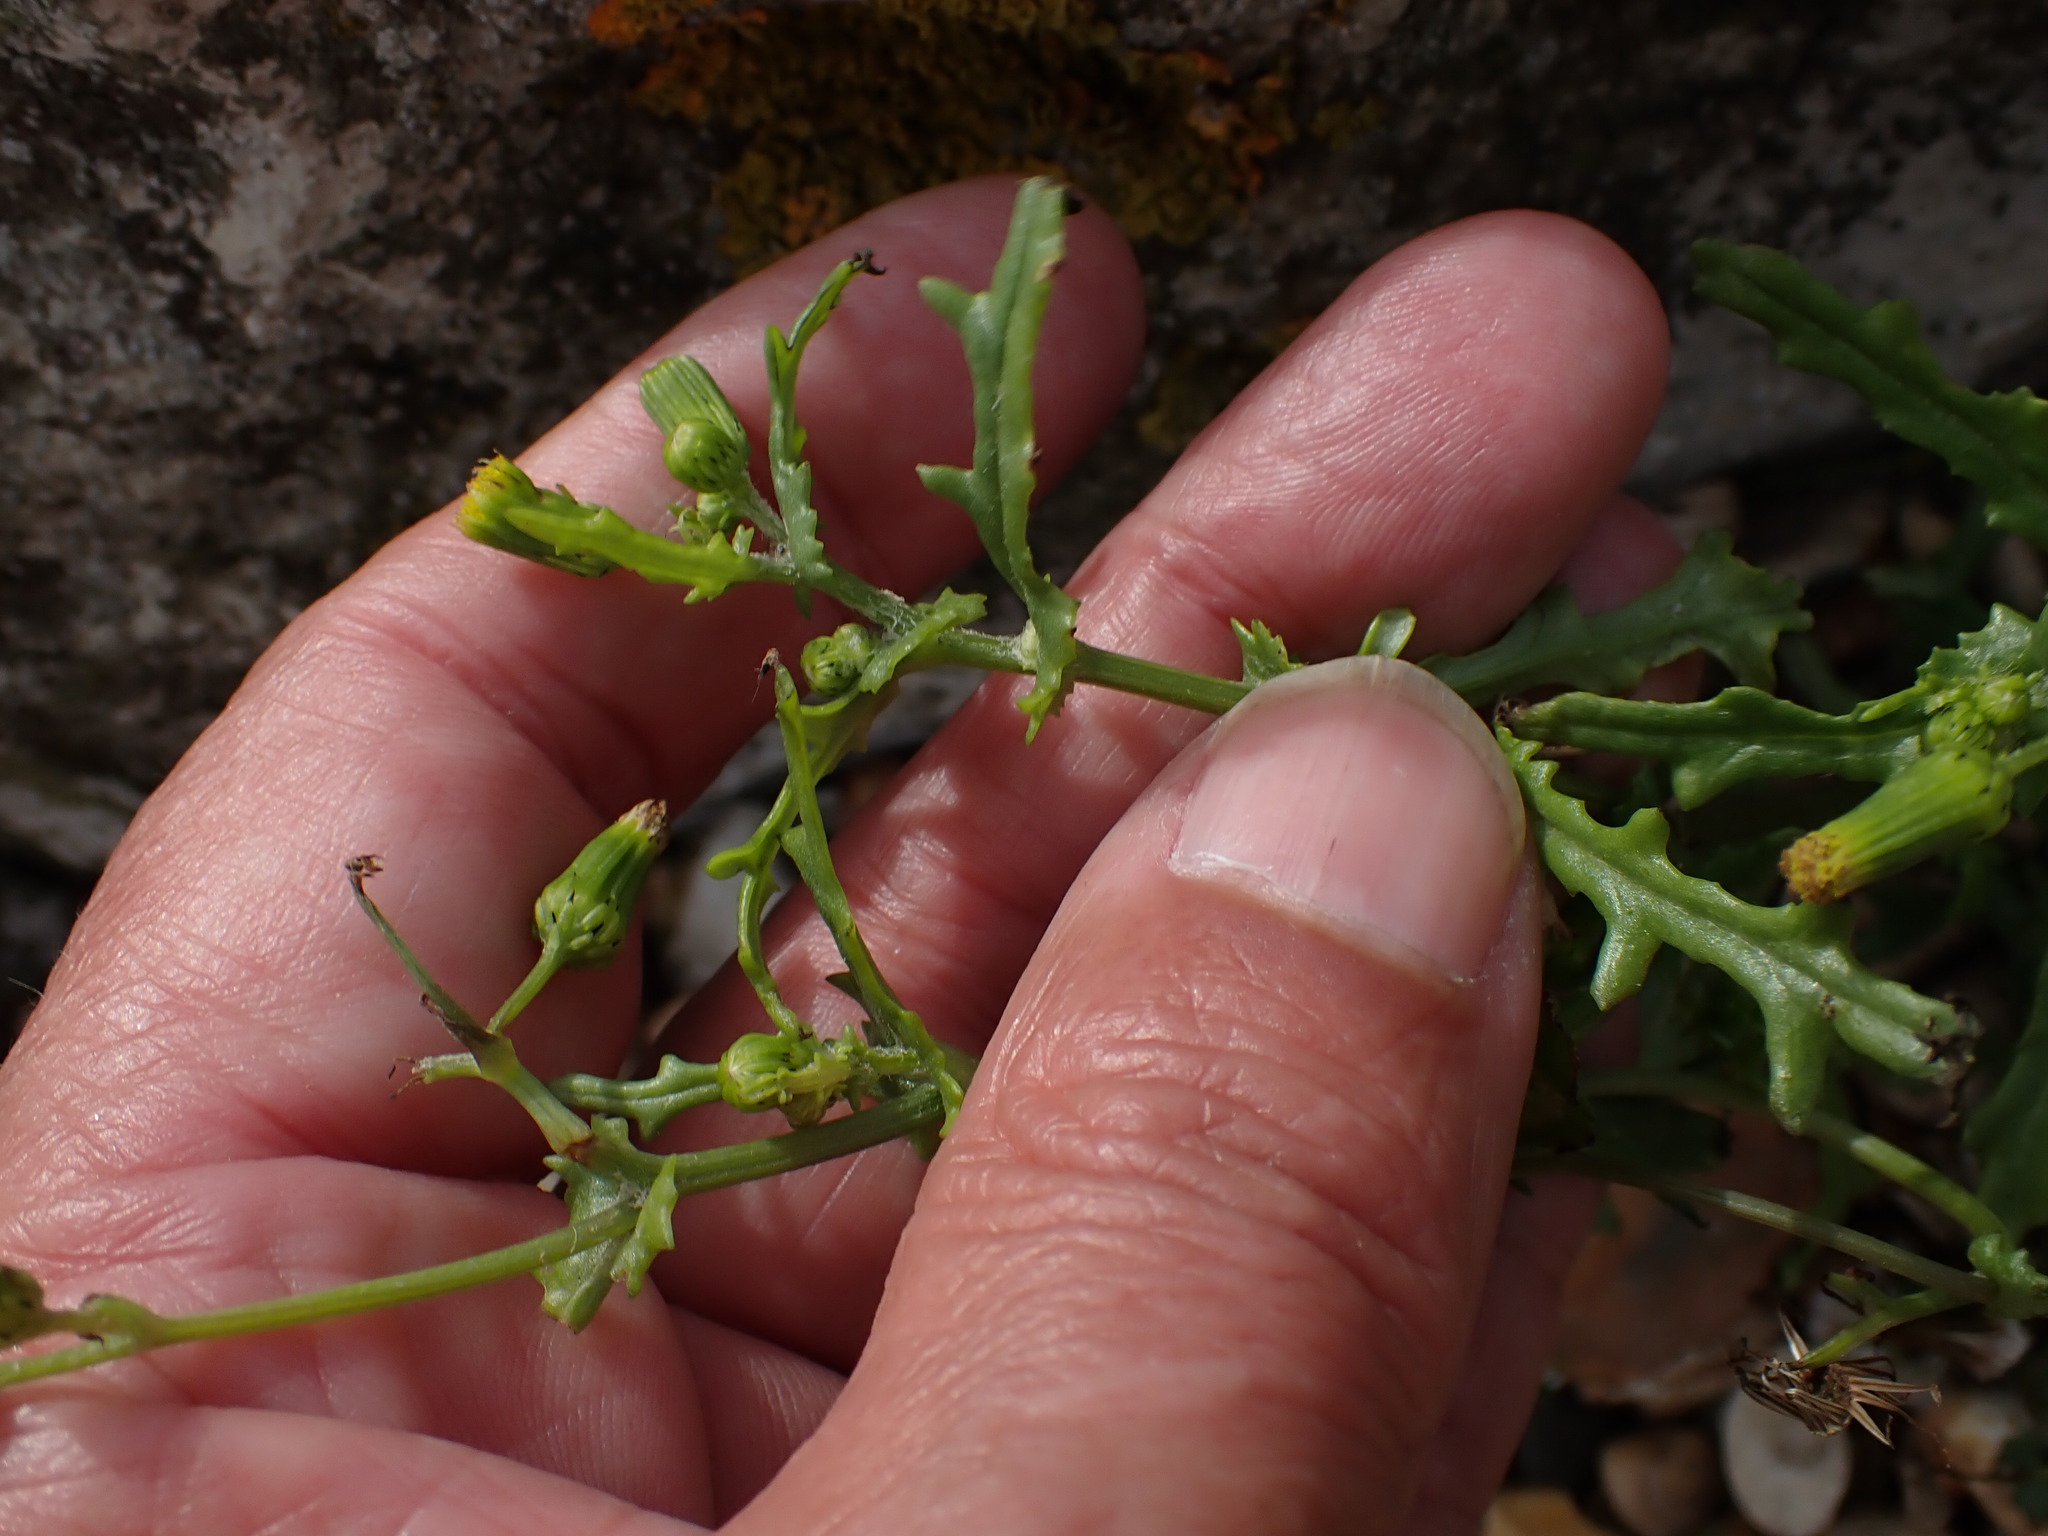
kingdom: Plantae
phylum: Tracheophyta
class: Magnoliopsida
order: Asterales
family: Asteraceae
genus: Senecio
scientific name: Senecio vulgaris
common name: Old-man-in-the-spring
